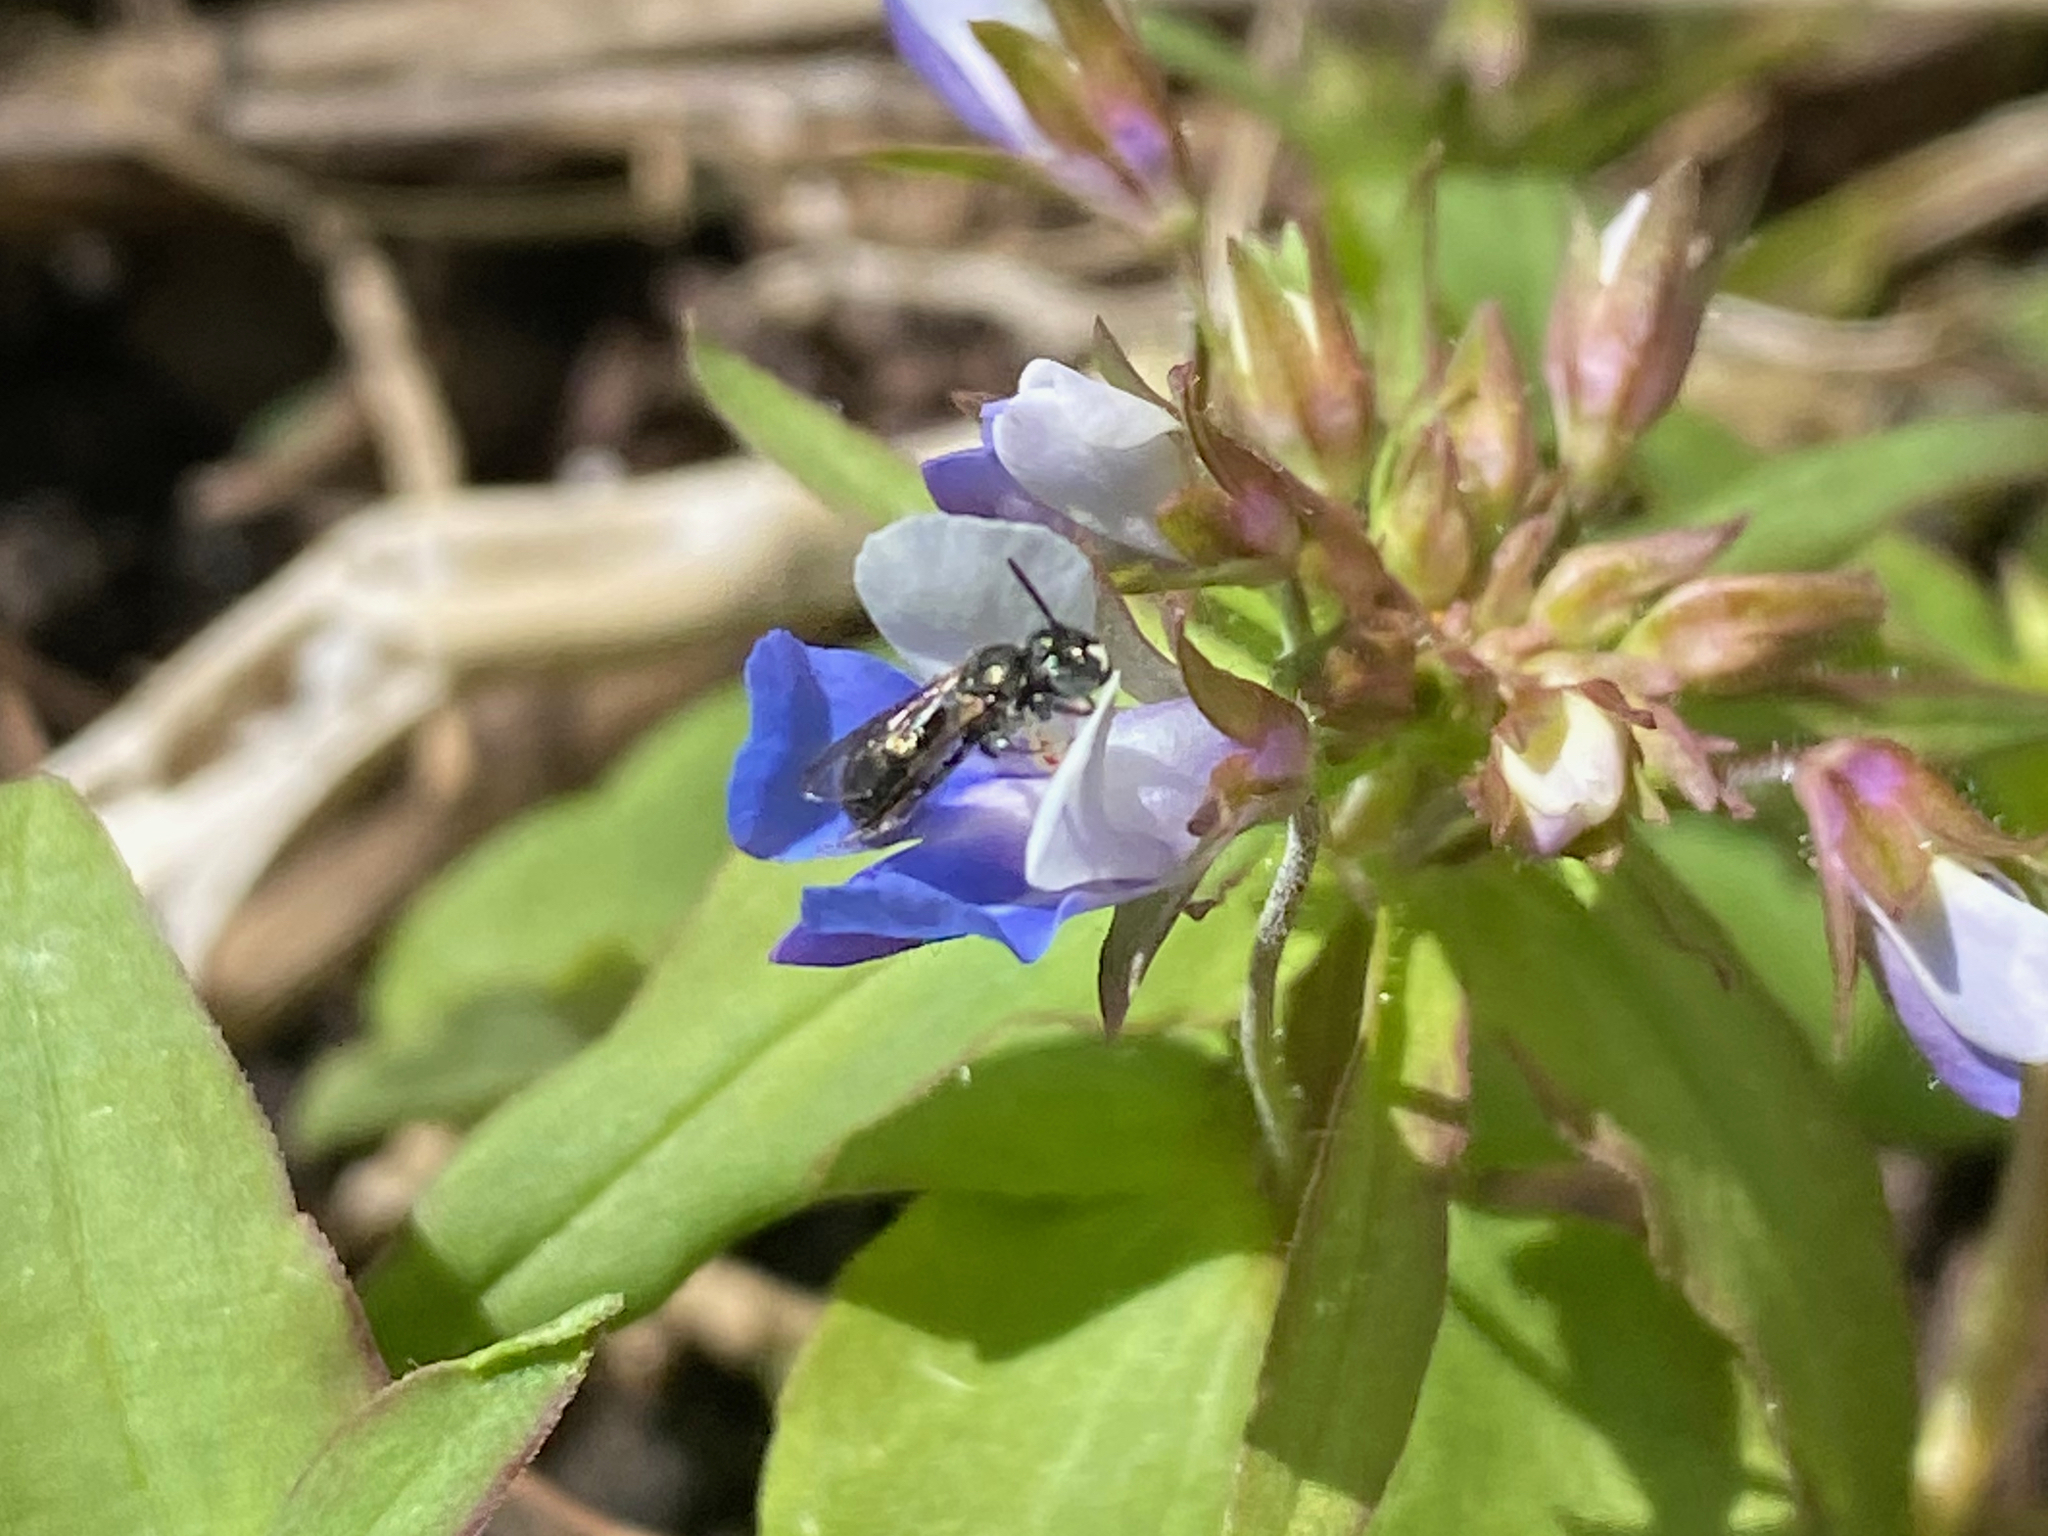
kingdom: Animalia
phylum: Arthropoda
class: Insecta
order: Hymenoptera
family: Apidae
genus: Zadontomerus
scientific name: Zadontomerus
